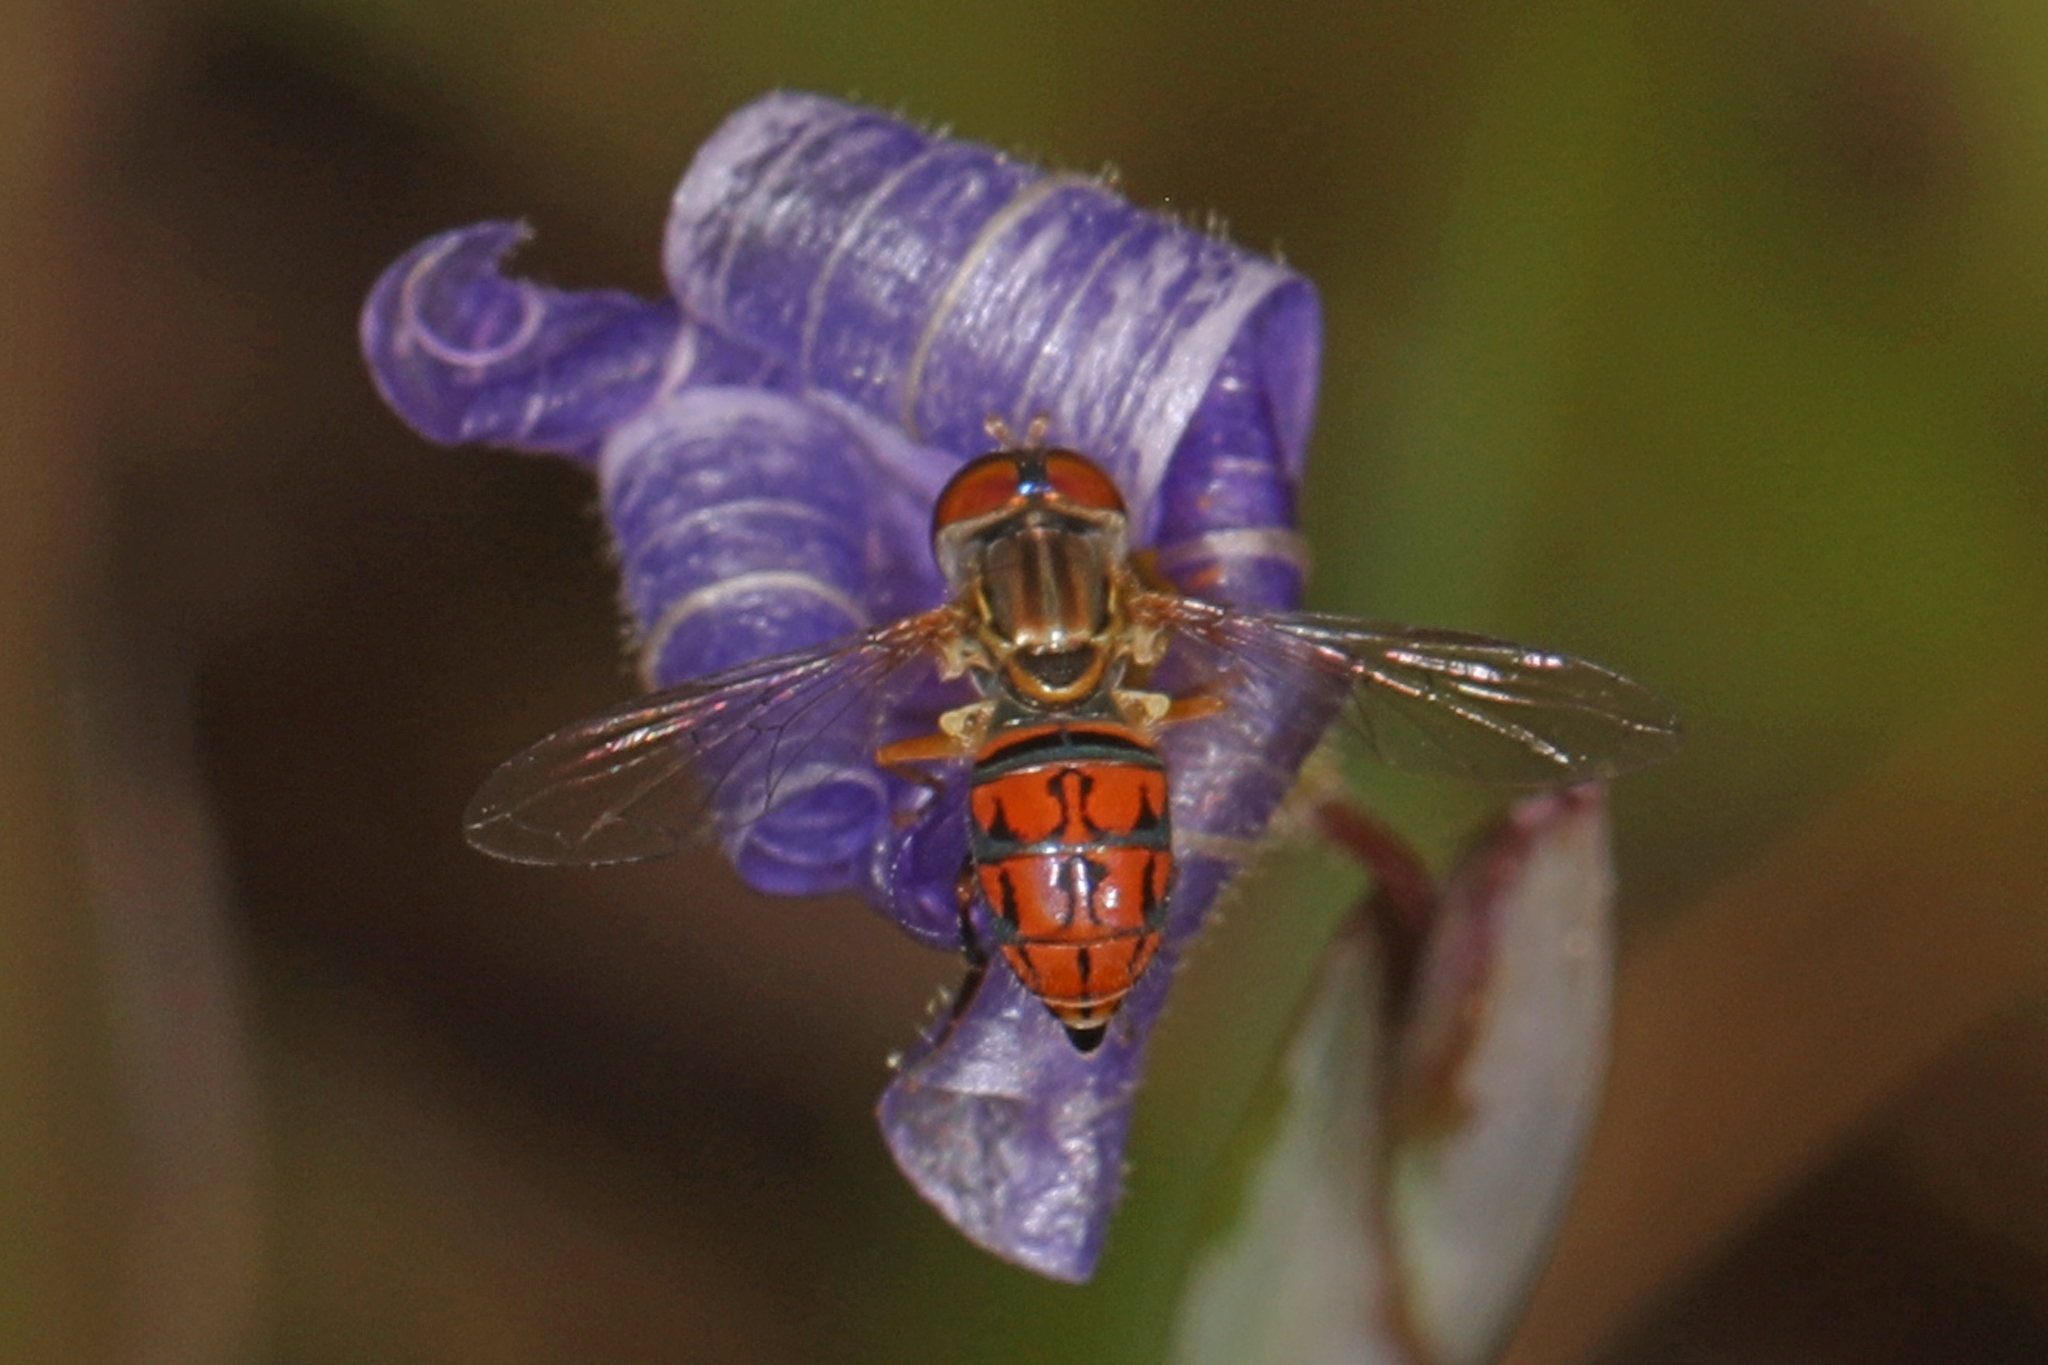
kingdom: Animalia
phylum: Arthropoda
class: Insecta
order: Diptera
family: Syrphidae
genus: Toxomerus
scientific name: Toxomerus boscii
